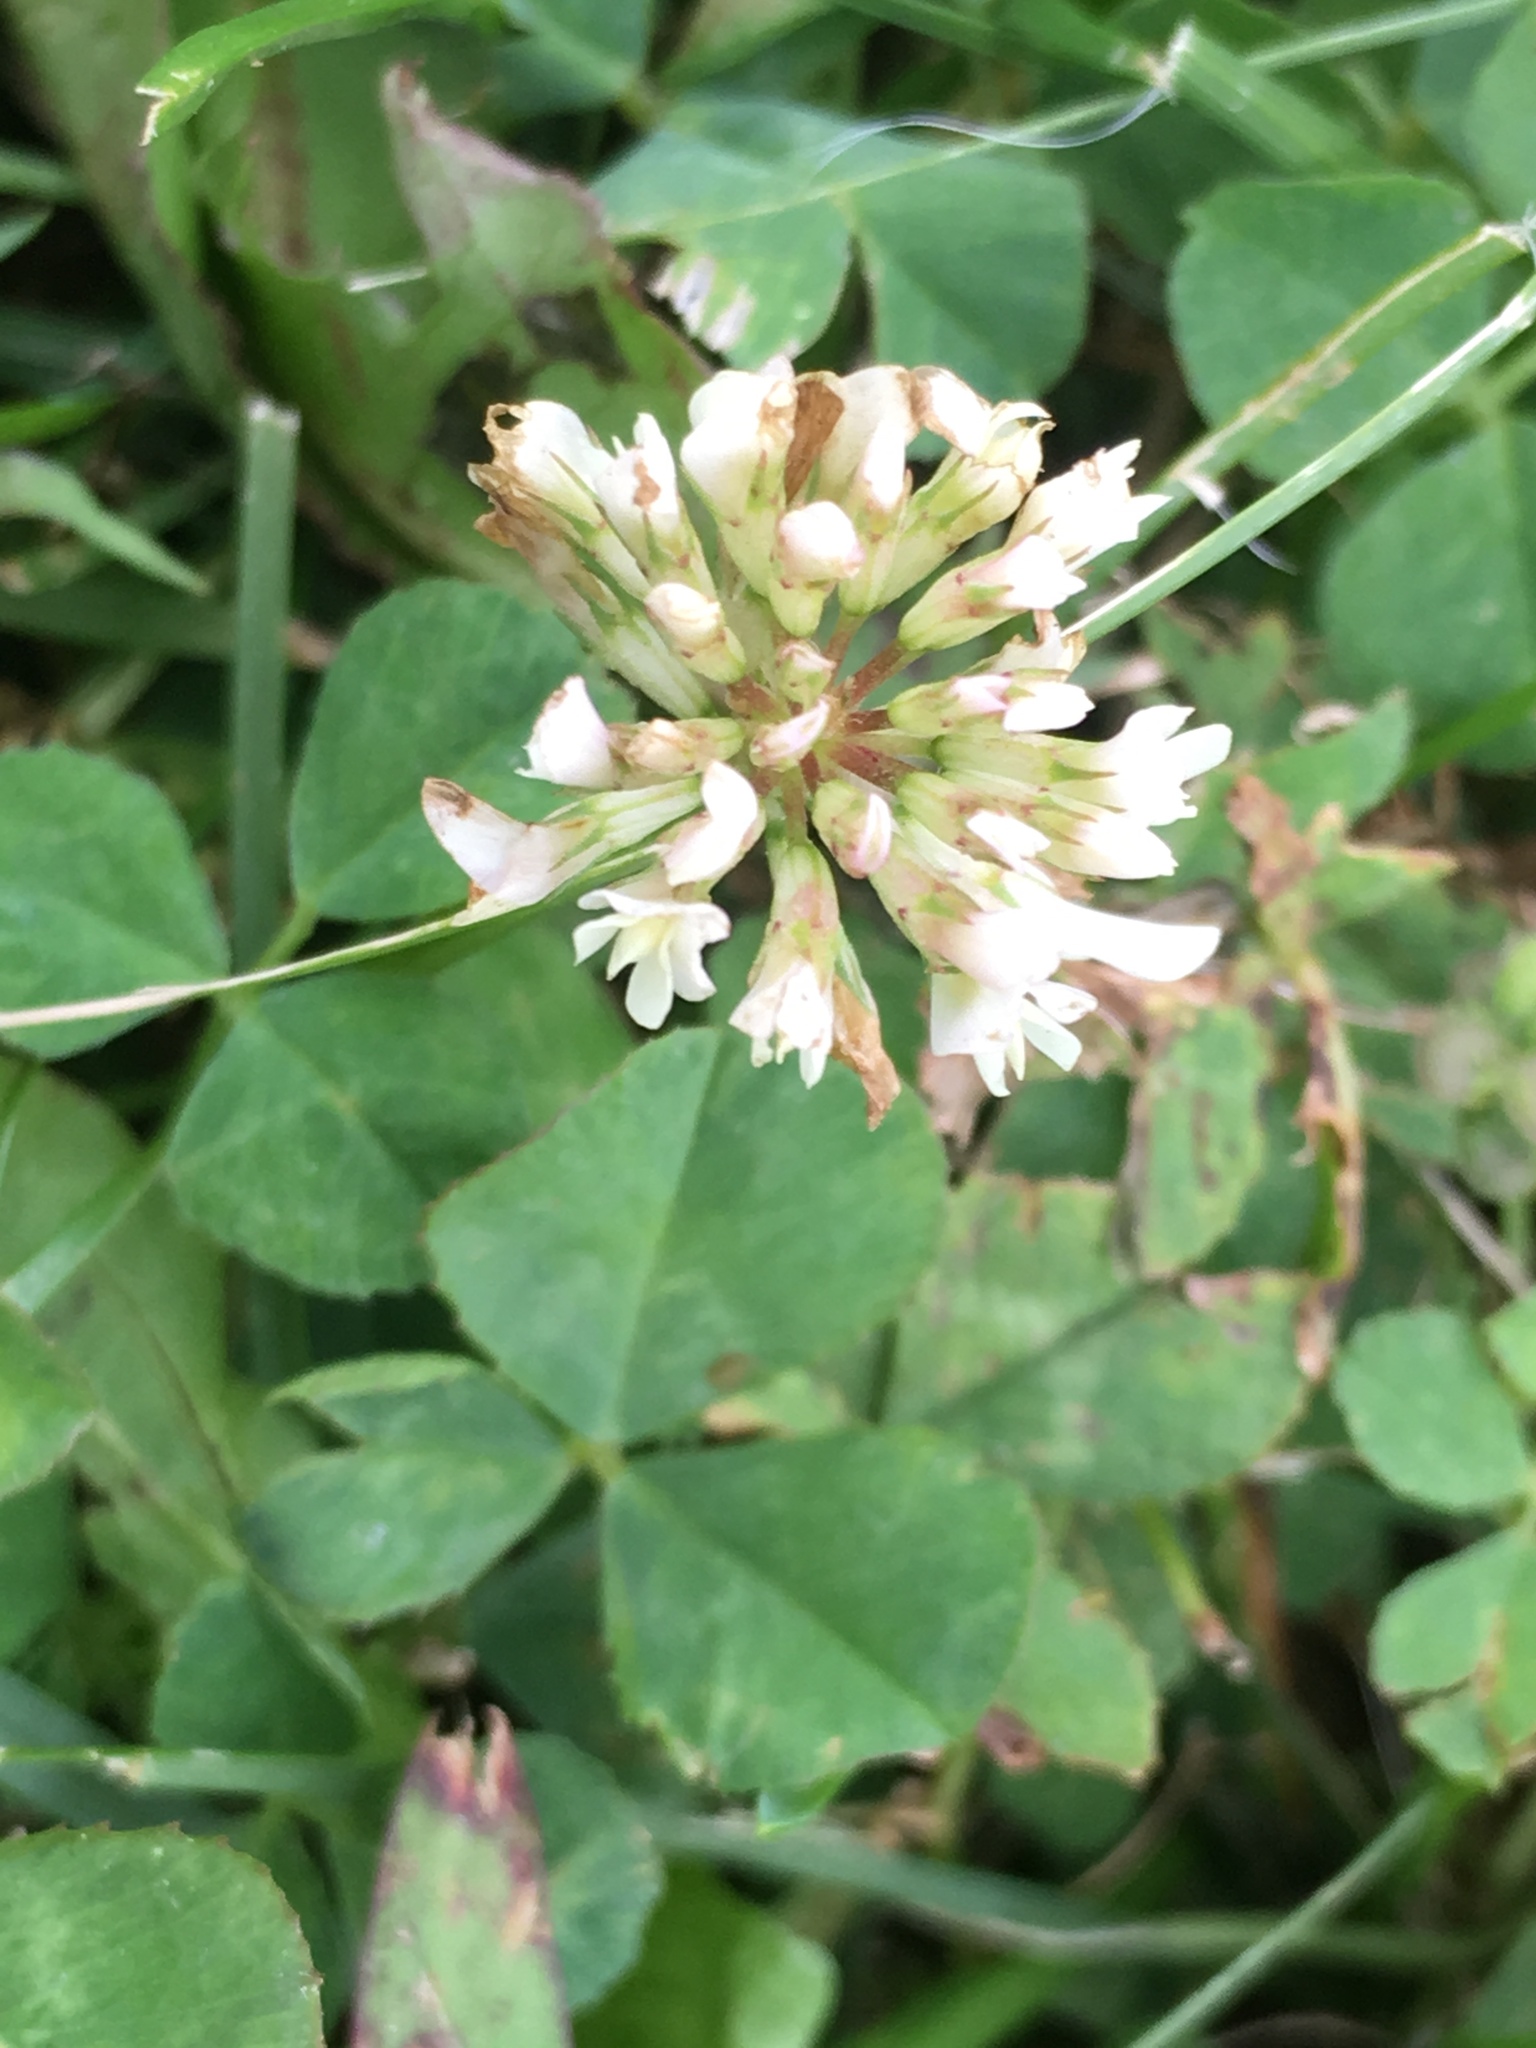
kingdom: Plantae
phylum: Tracheophyta
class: Magnoliopsida
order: Fabales
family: Fabaceae
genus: Trifolium
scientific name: Trifolium repens
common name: White clover
